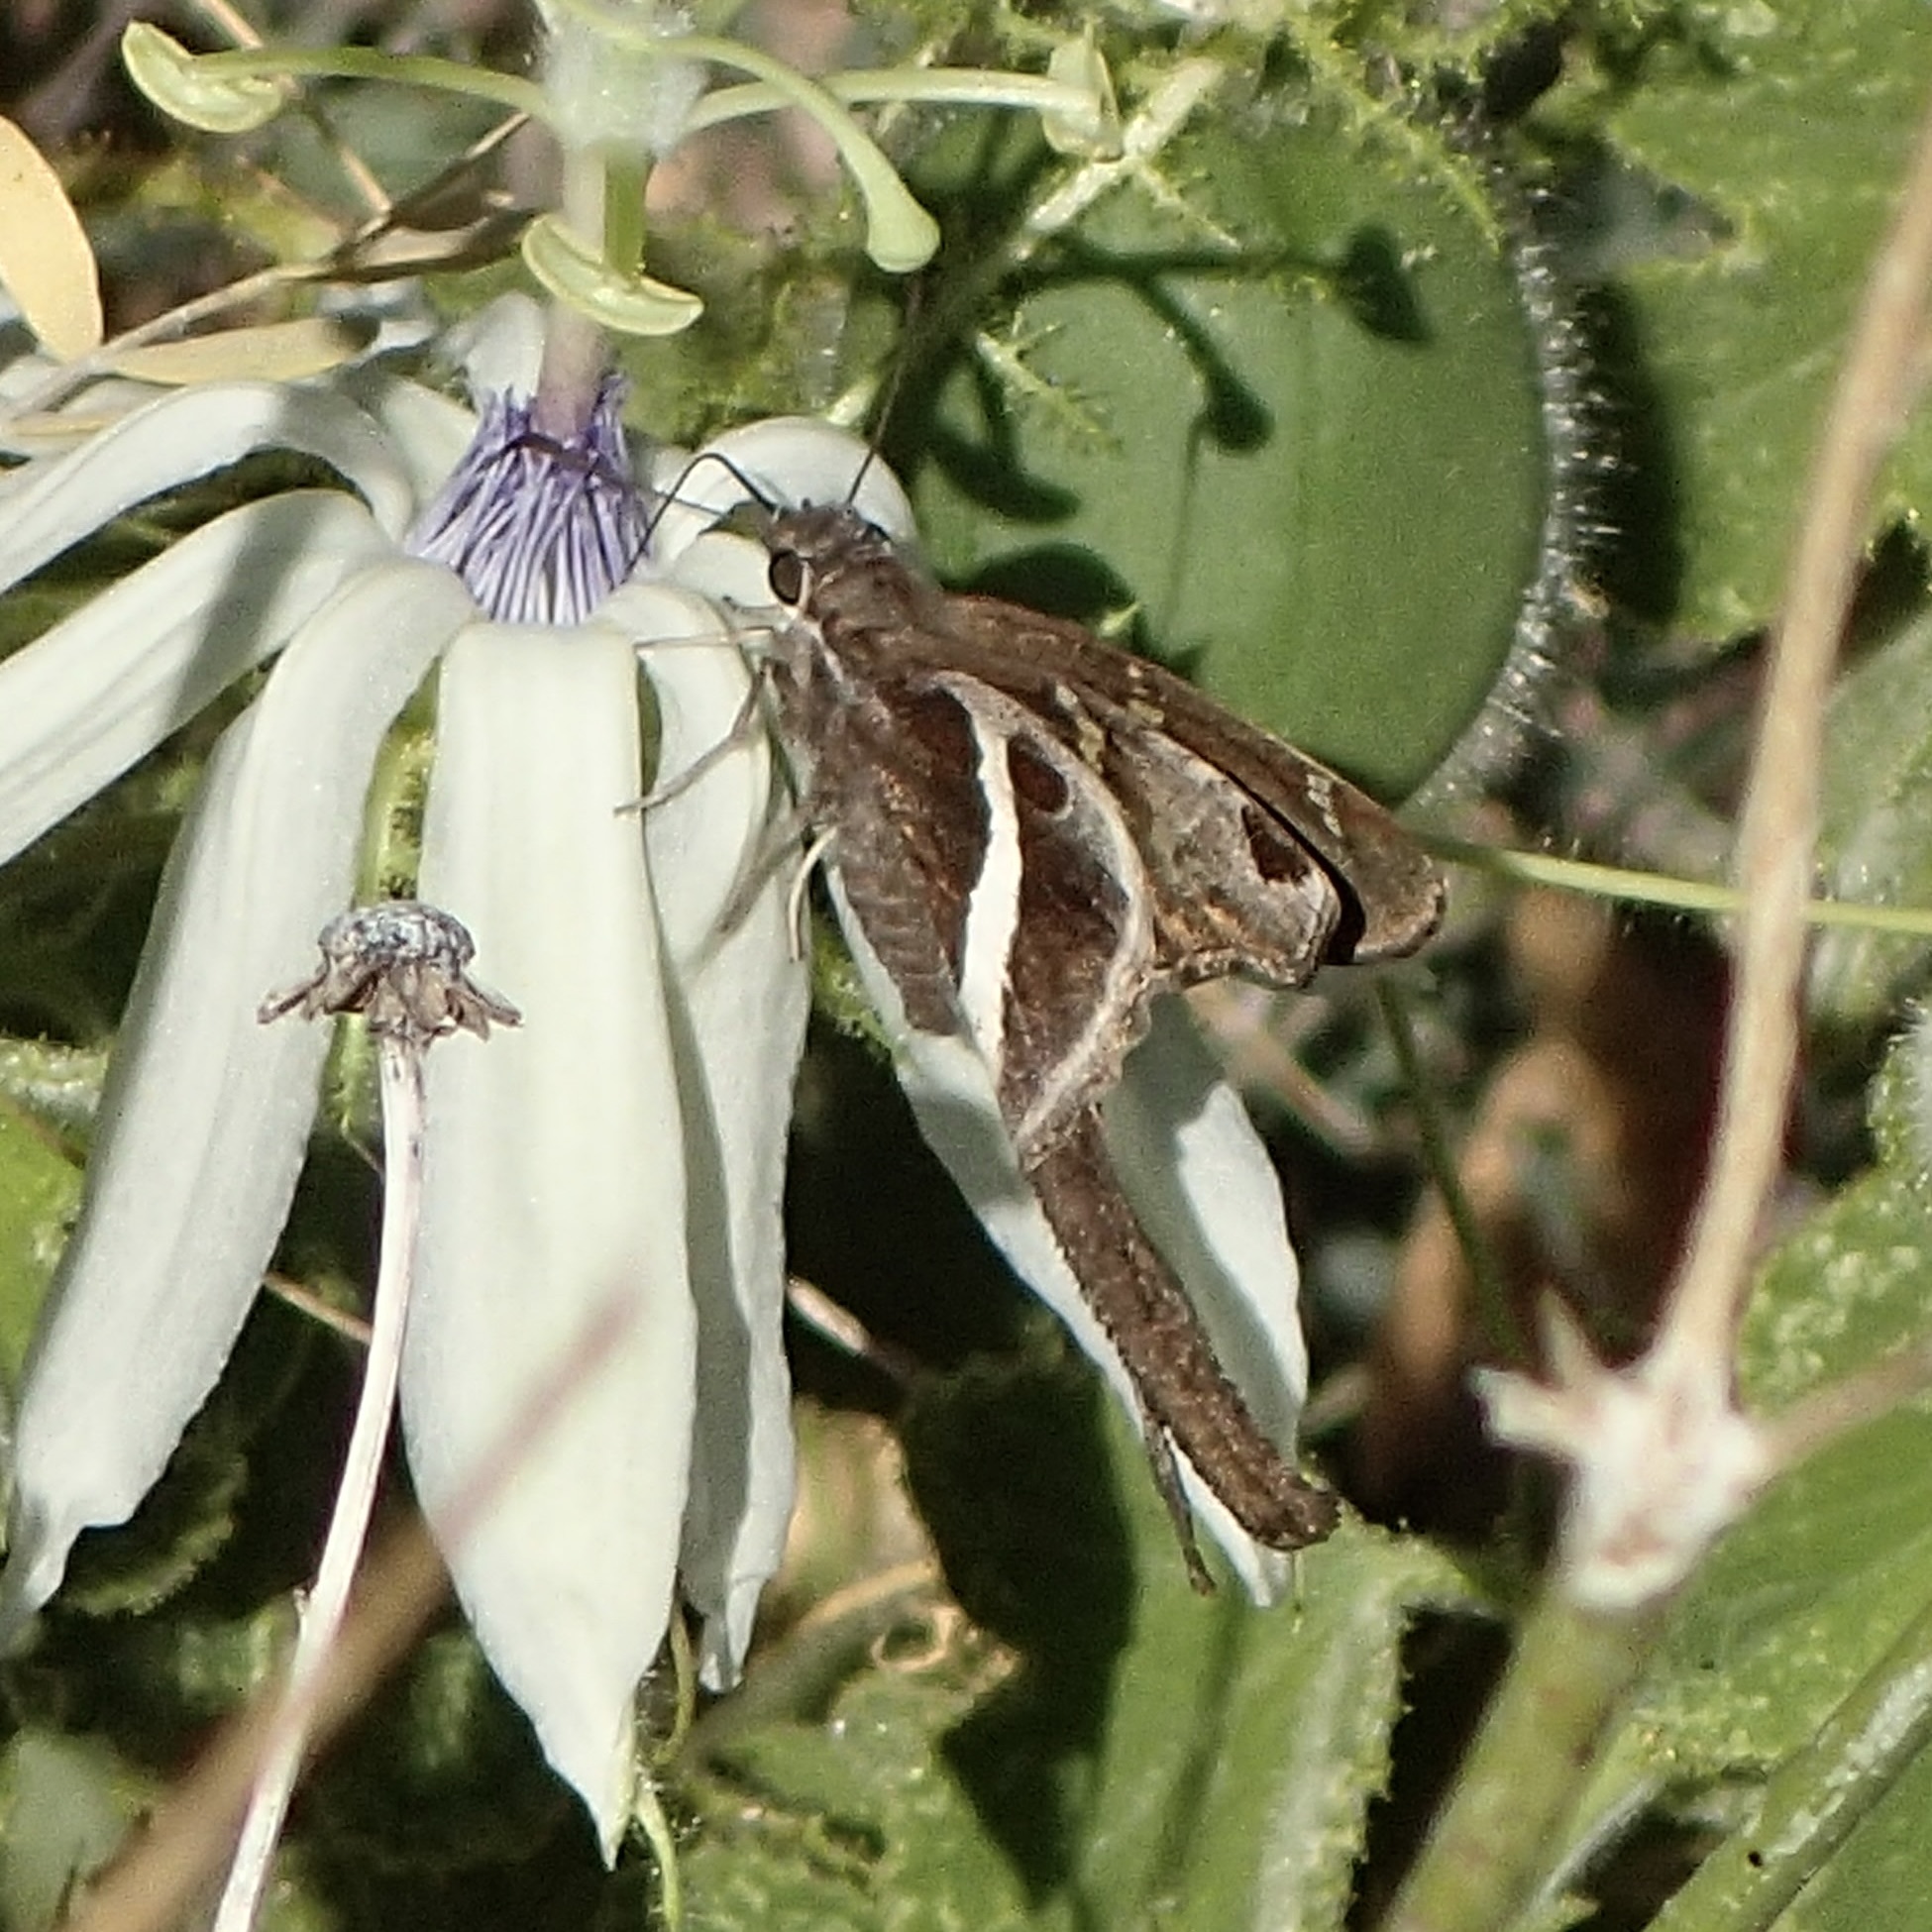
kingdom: Animalia
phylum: Arthropoda
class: Insecta
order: Lepidoptera
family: Hesperiidae
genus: Chioides
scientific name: Chioides catillus
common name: Silverbanded skipper
